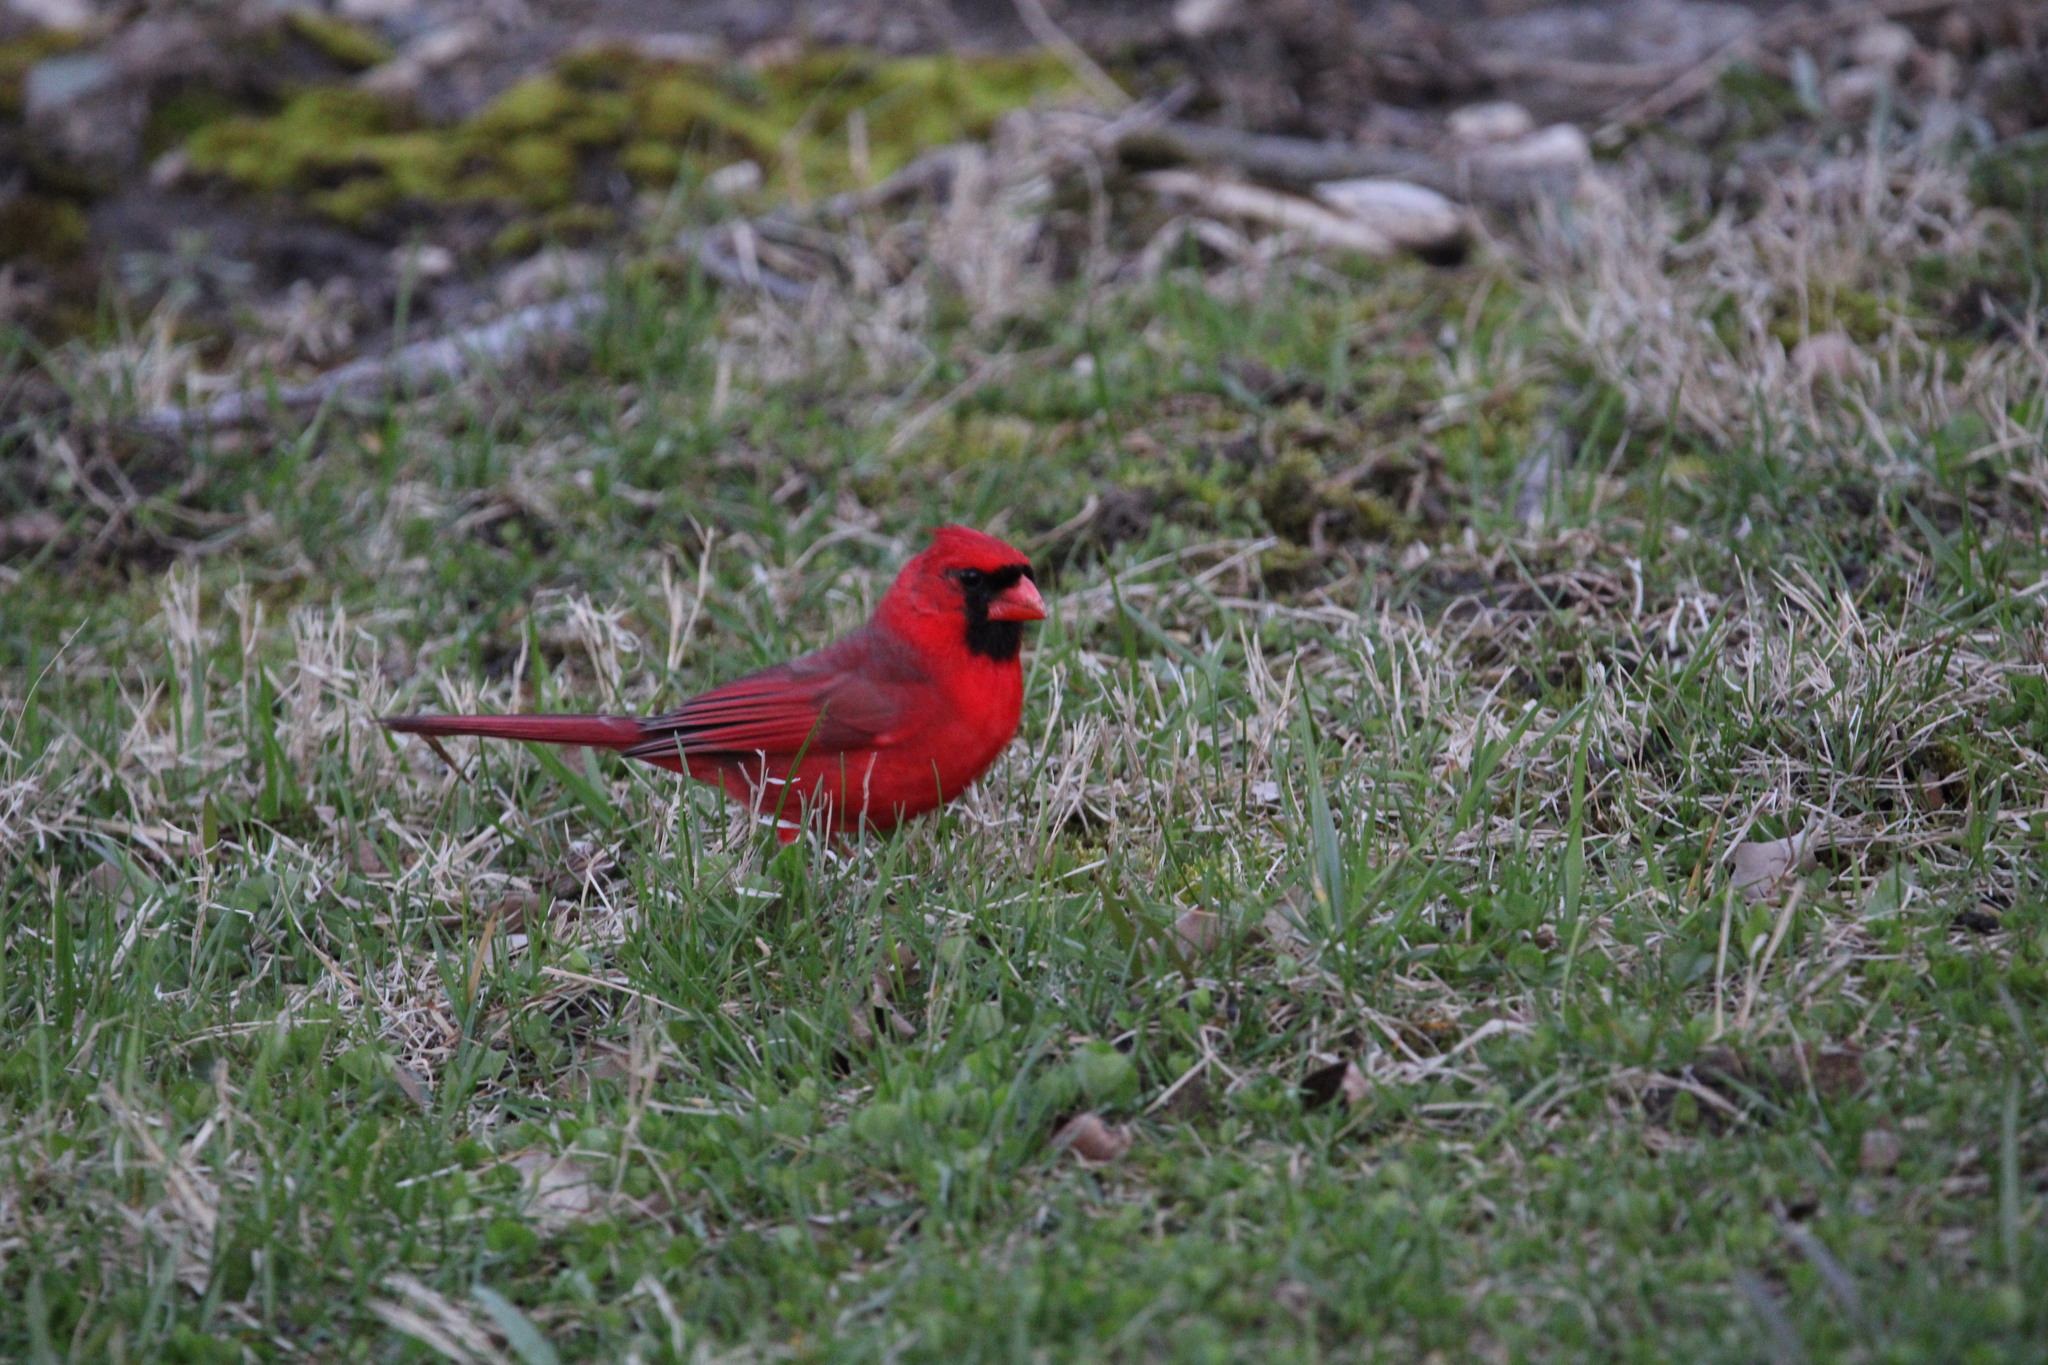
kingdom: Animalia
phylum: Chordata
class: Aves
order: Passeriformes
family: Cardinalidae
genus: Cardinalis
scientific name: Cardinalis cardinalis
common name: Northern cardinal
